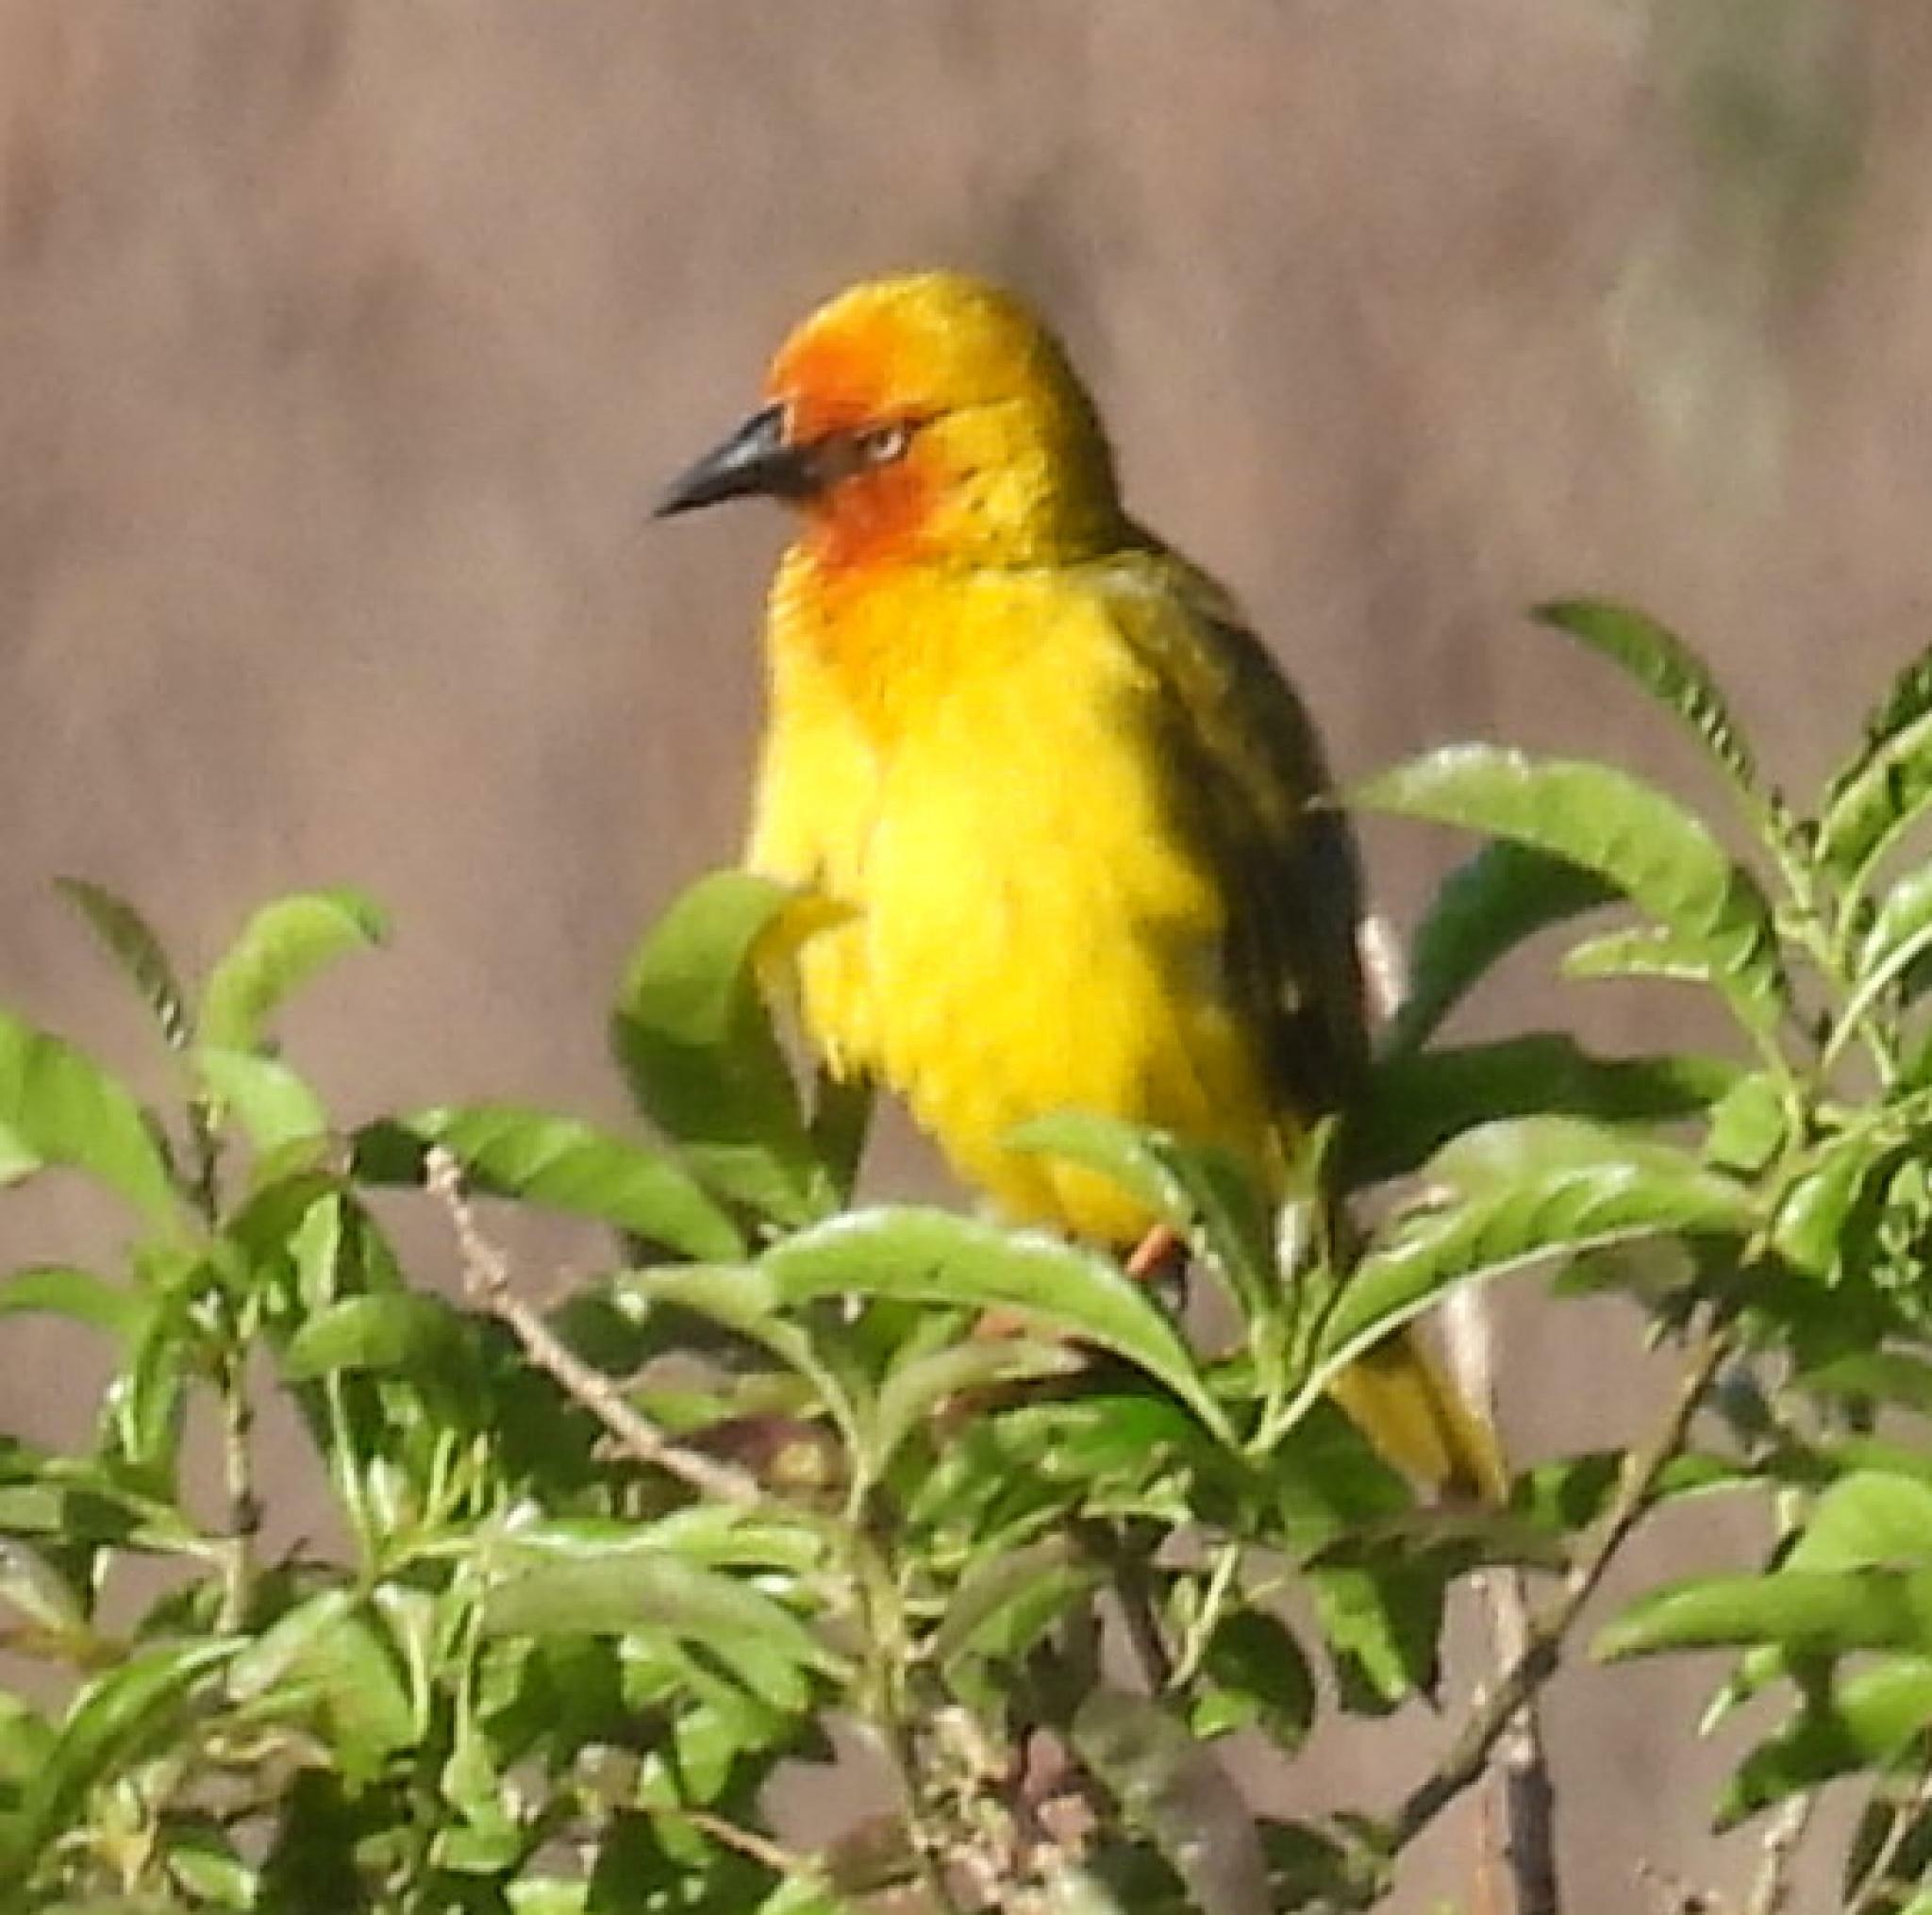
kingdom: Animalia
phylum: Chordata
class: Aves
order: Passeriformes
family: Ploceidae
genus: Ploceus
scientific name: Ploceus capensis
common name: Cape weaver
